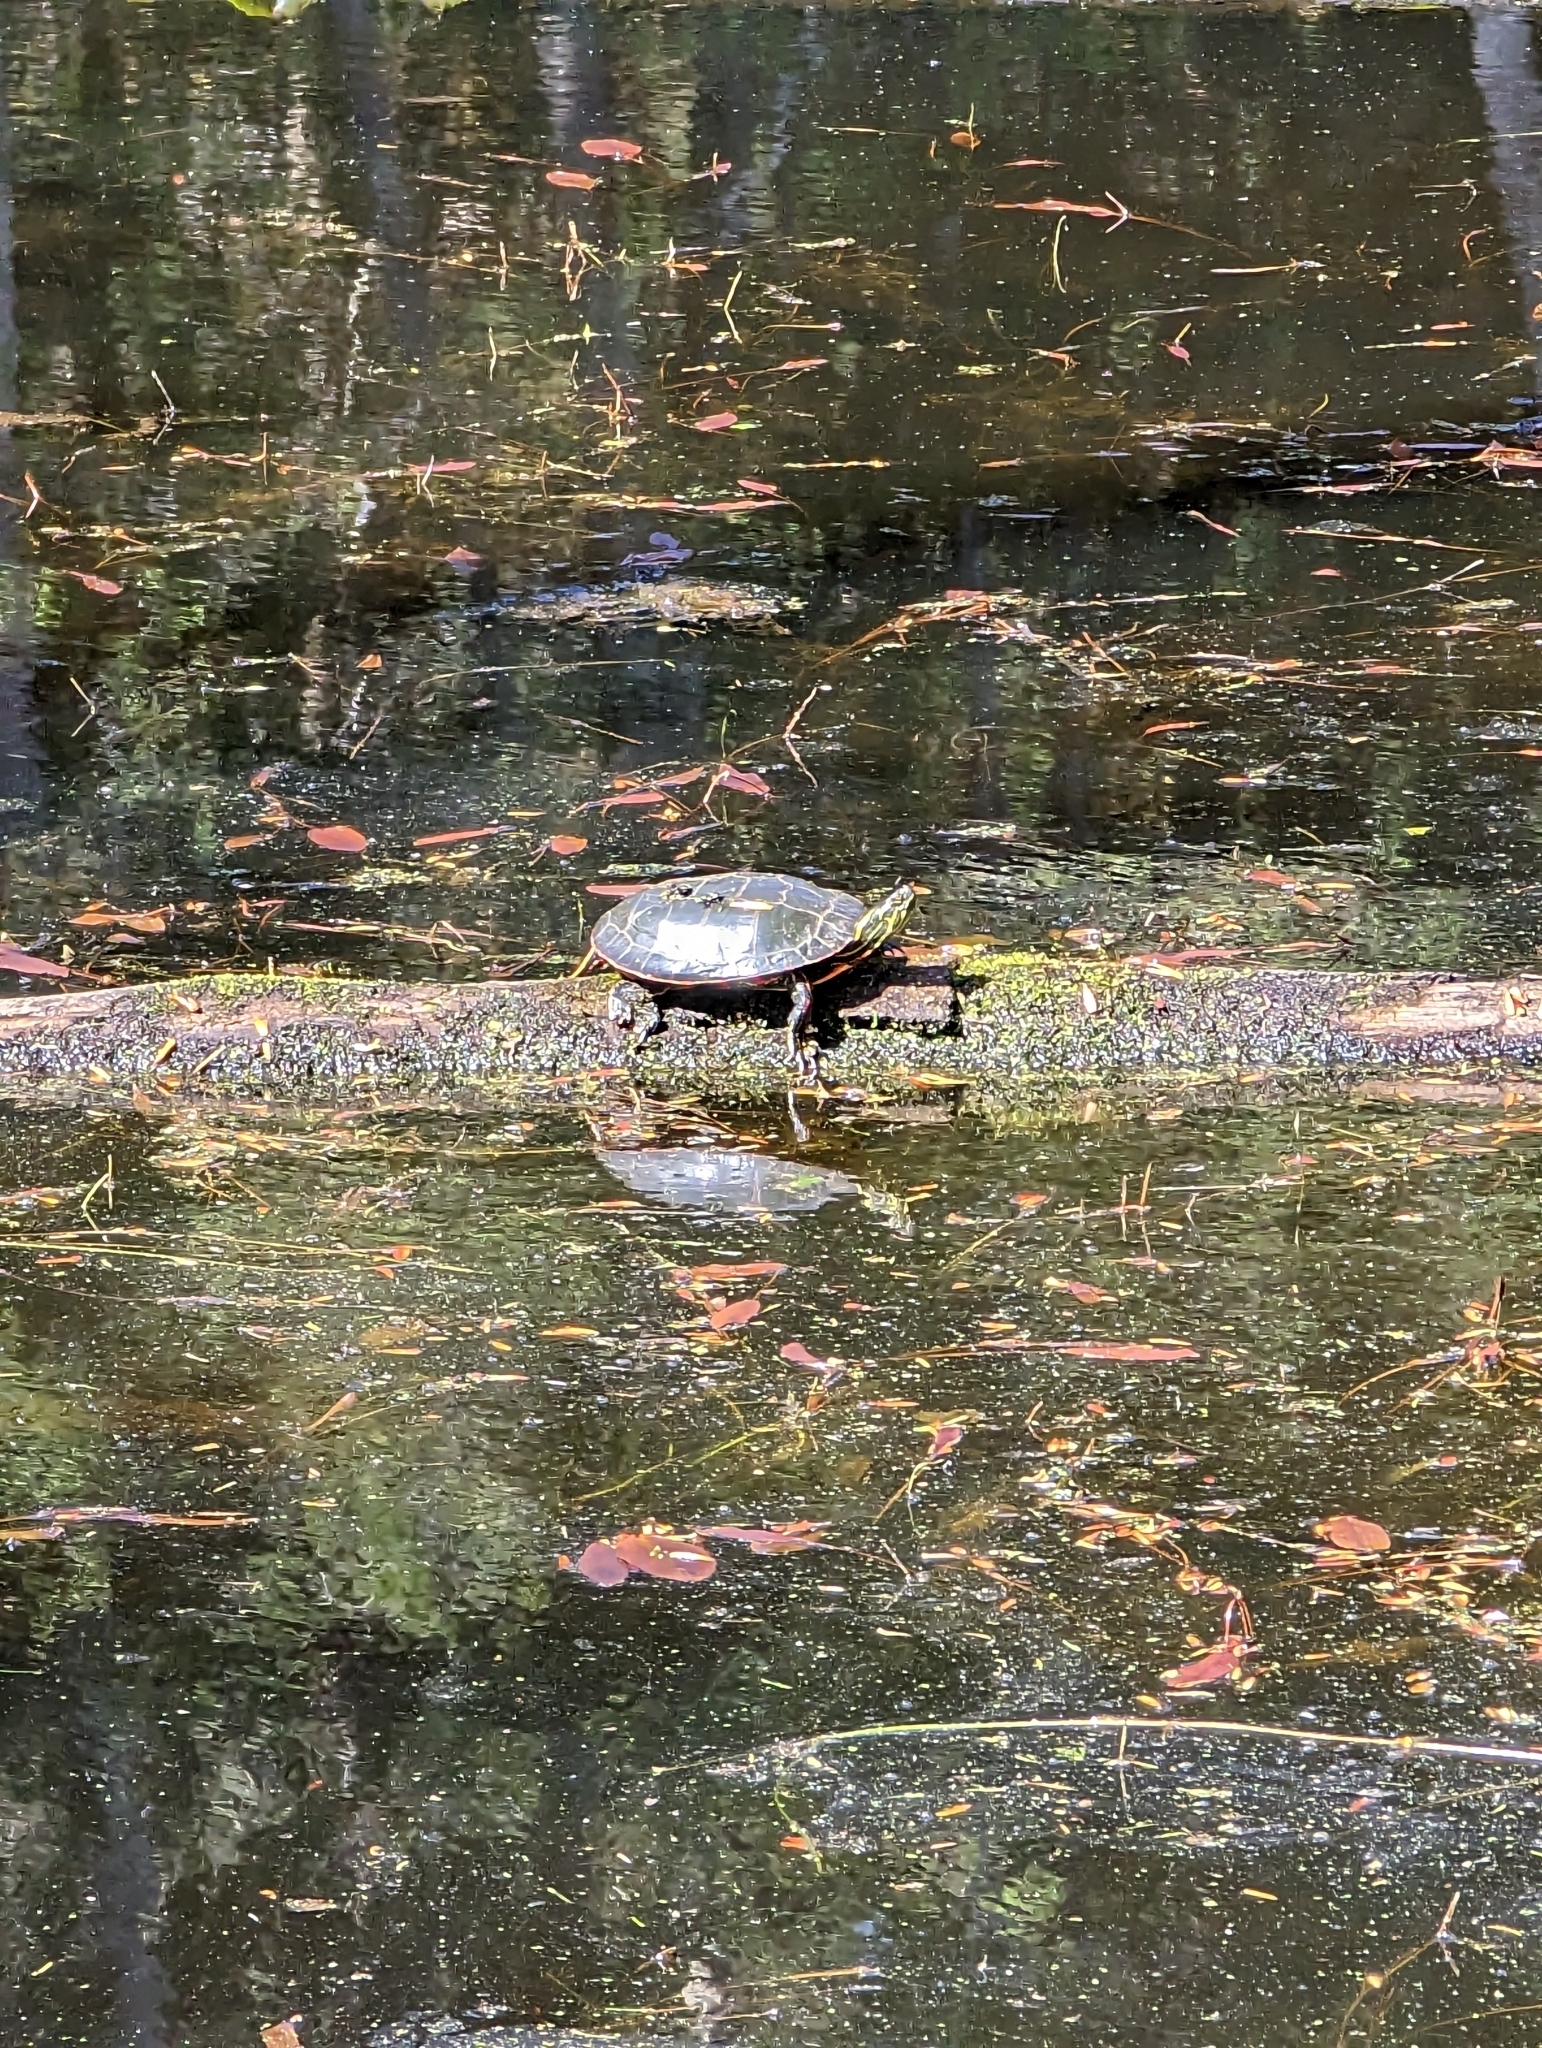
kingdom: Animalia
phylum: Chordata
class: Testudines
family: Emydidae
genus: Chrysemys
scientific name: Chrysemys picta
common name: Painted turtle
